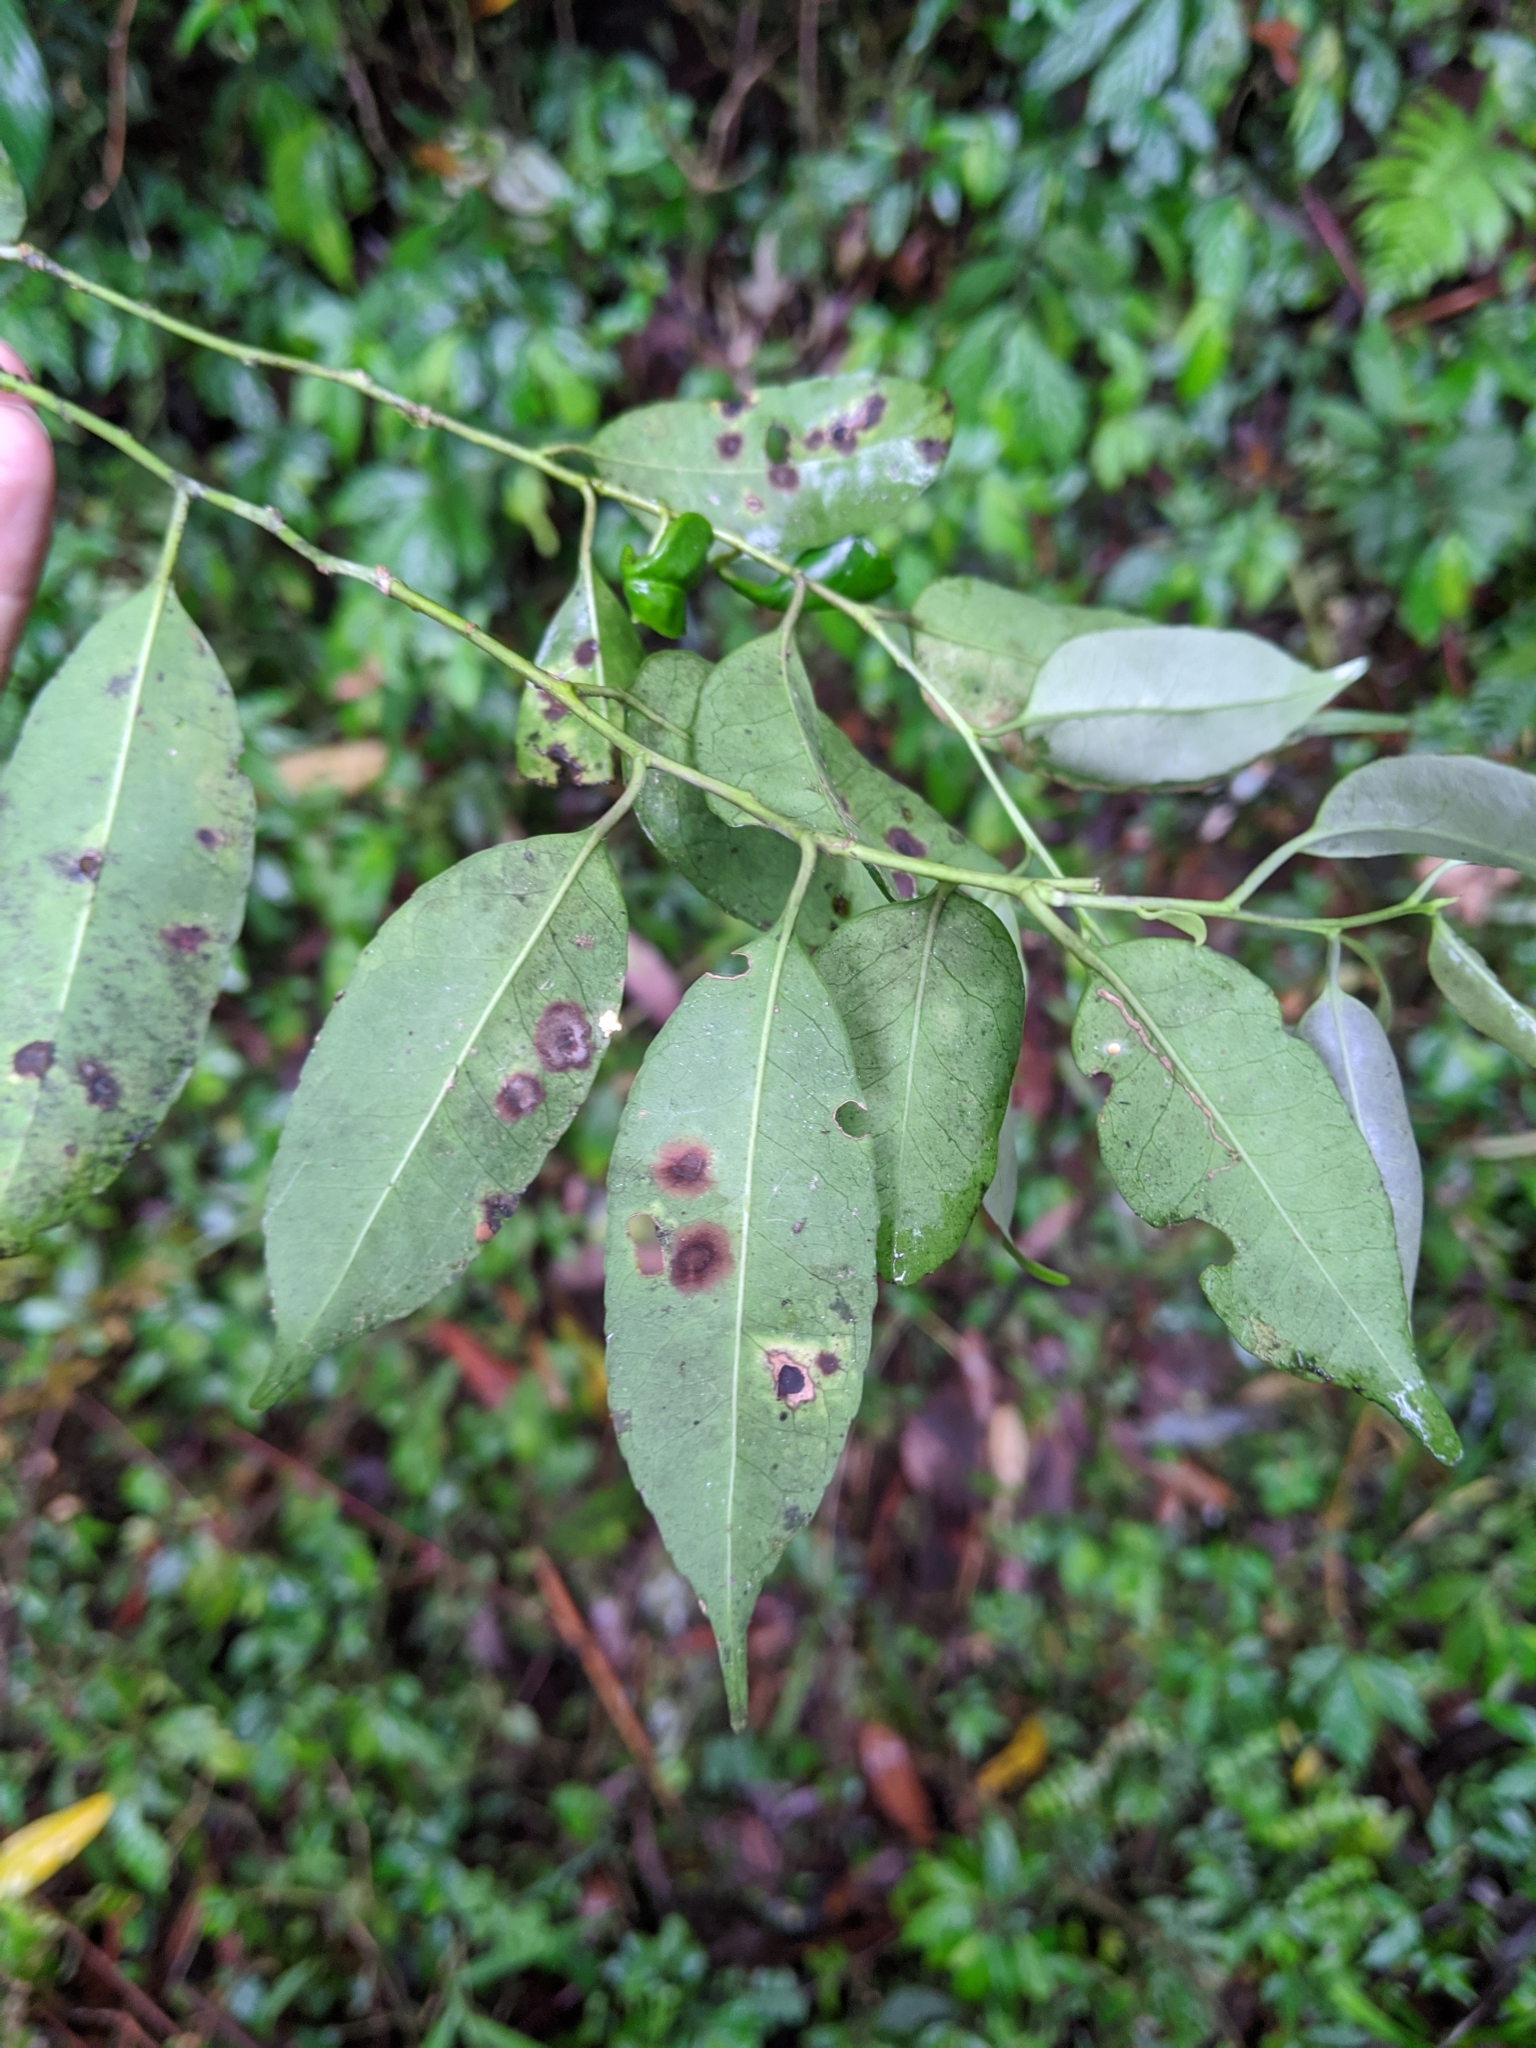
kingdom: Plantae
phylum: Tracheophyta
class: Magnoliopsida
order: Aquifoliales
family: Aquifoliaceae
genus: Ilex
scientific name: Ilex ficoidea
